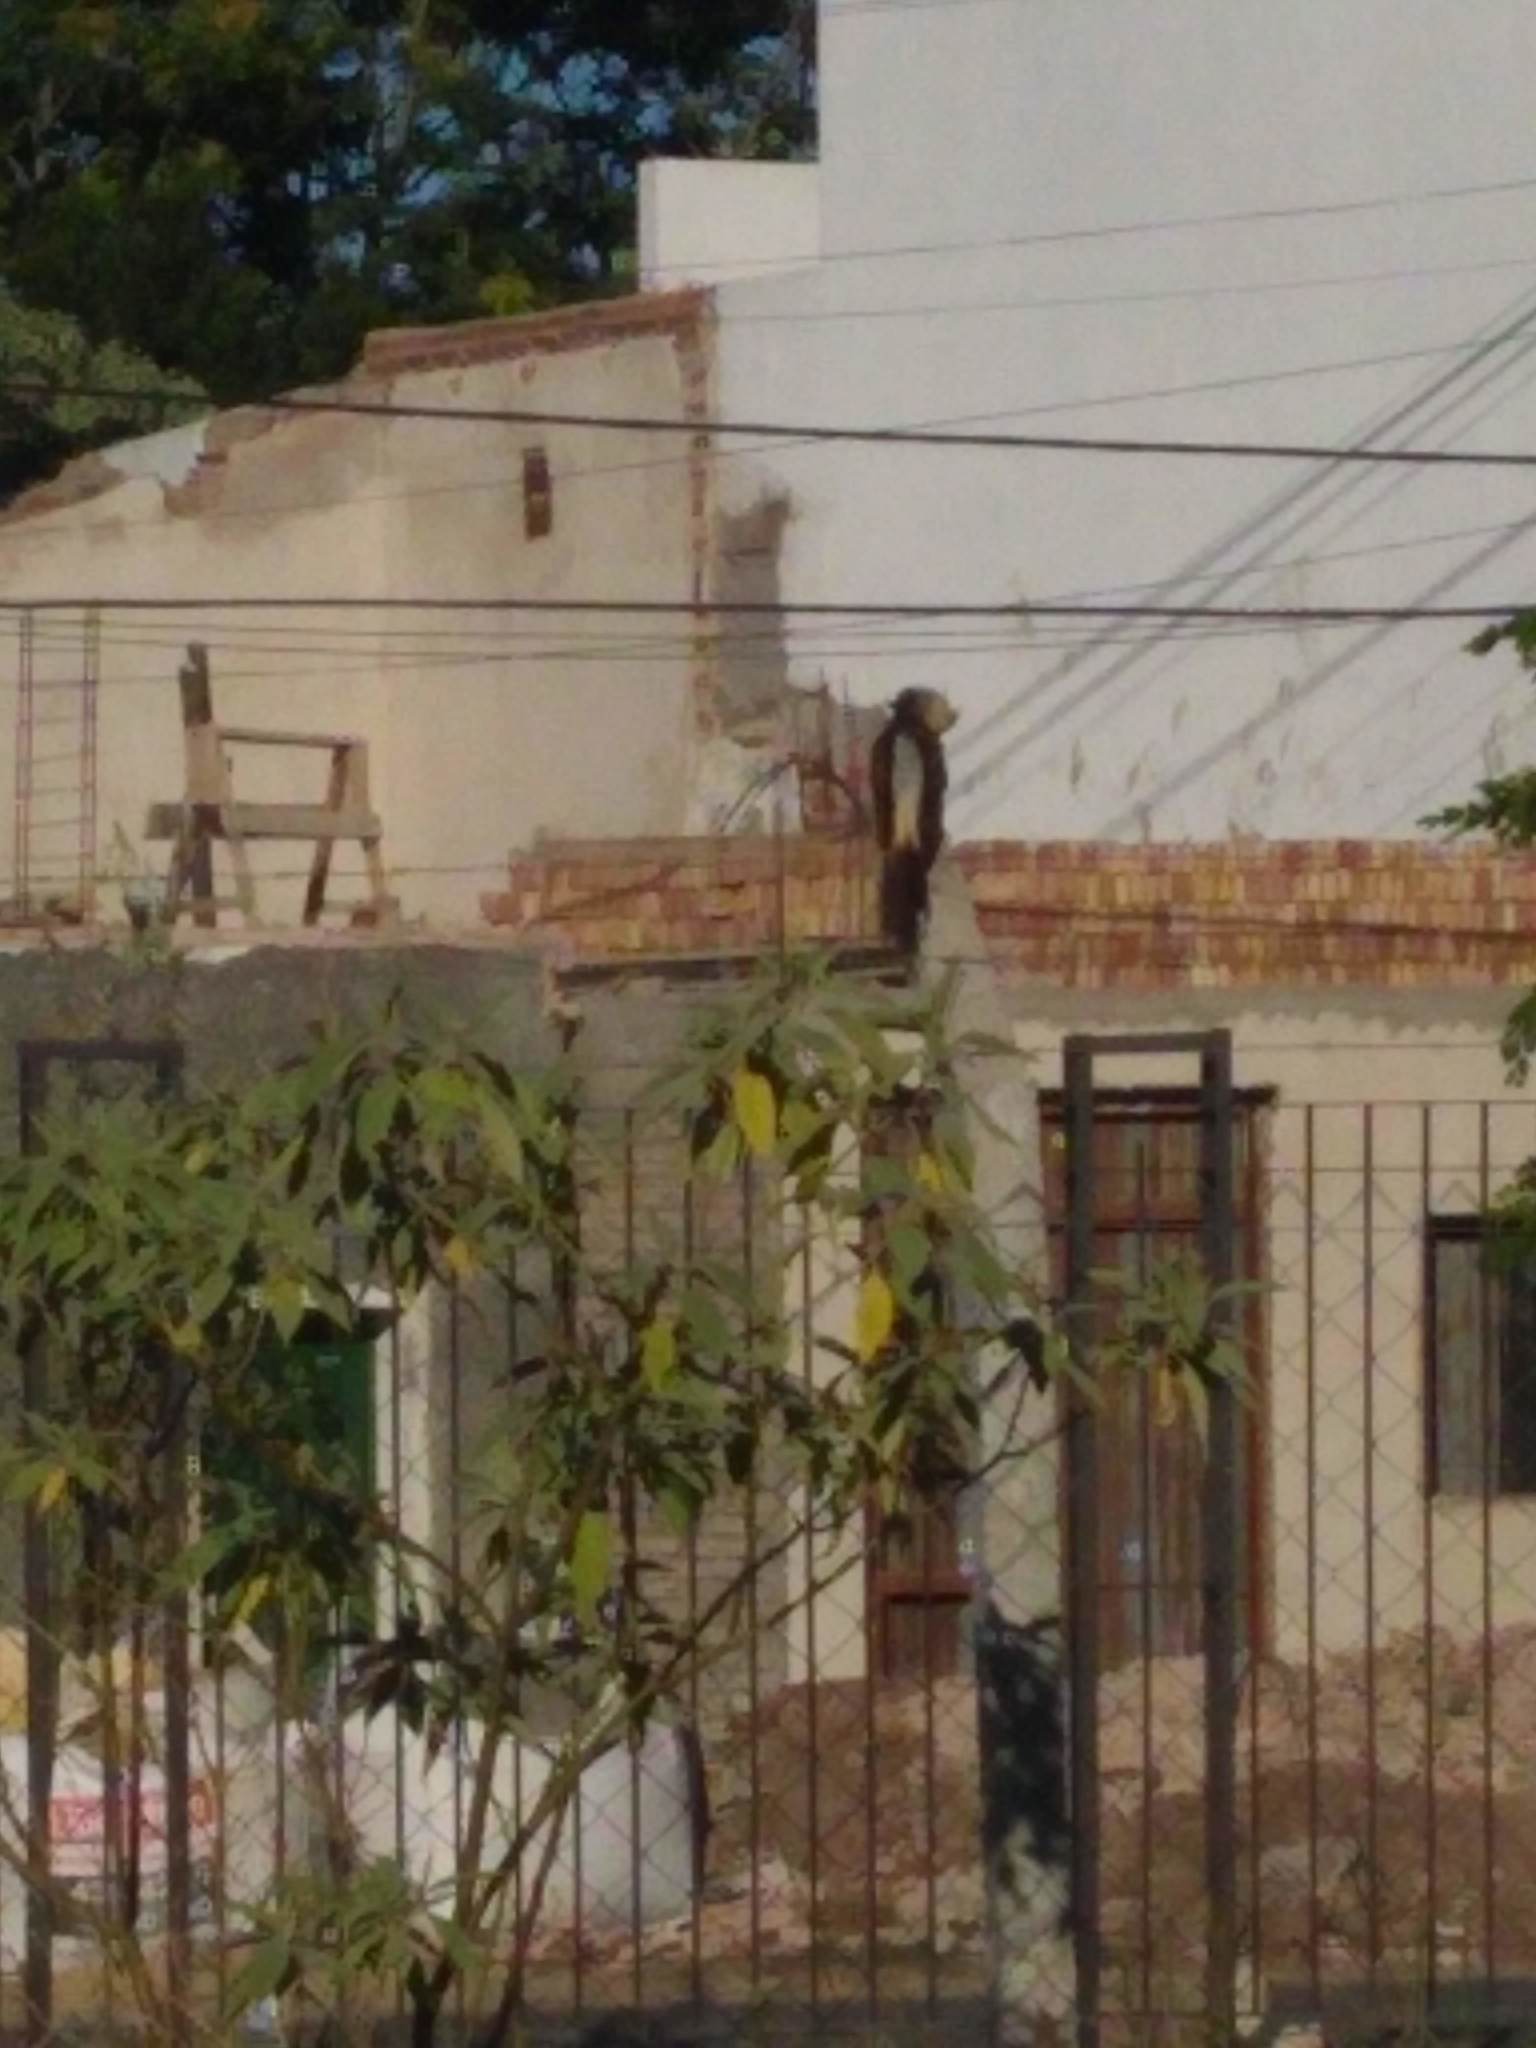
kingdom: Animalia
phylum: Chordata
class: Aves
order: Cuculiformes
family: Cuculidae
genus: Guira
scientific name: Guira guira
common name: Guira cuckoo
